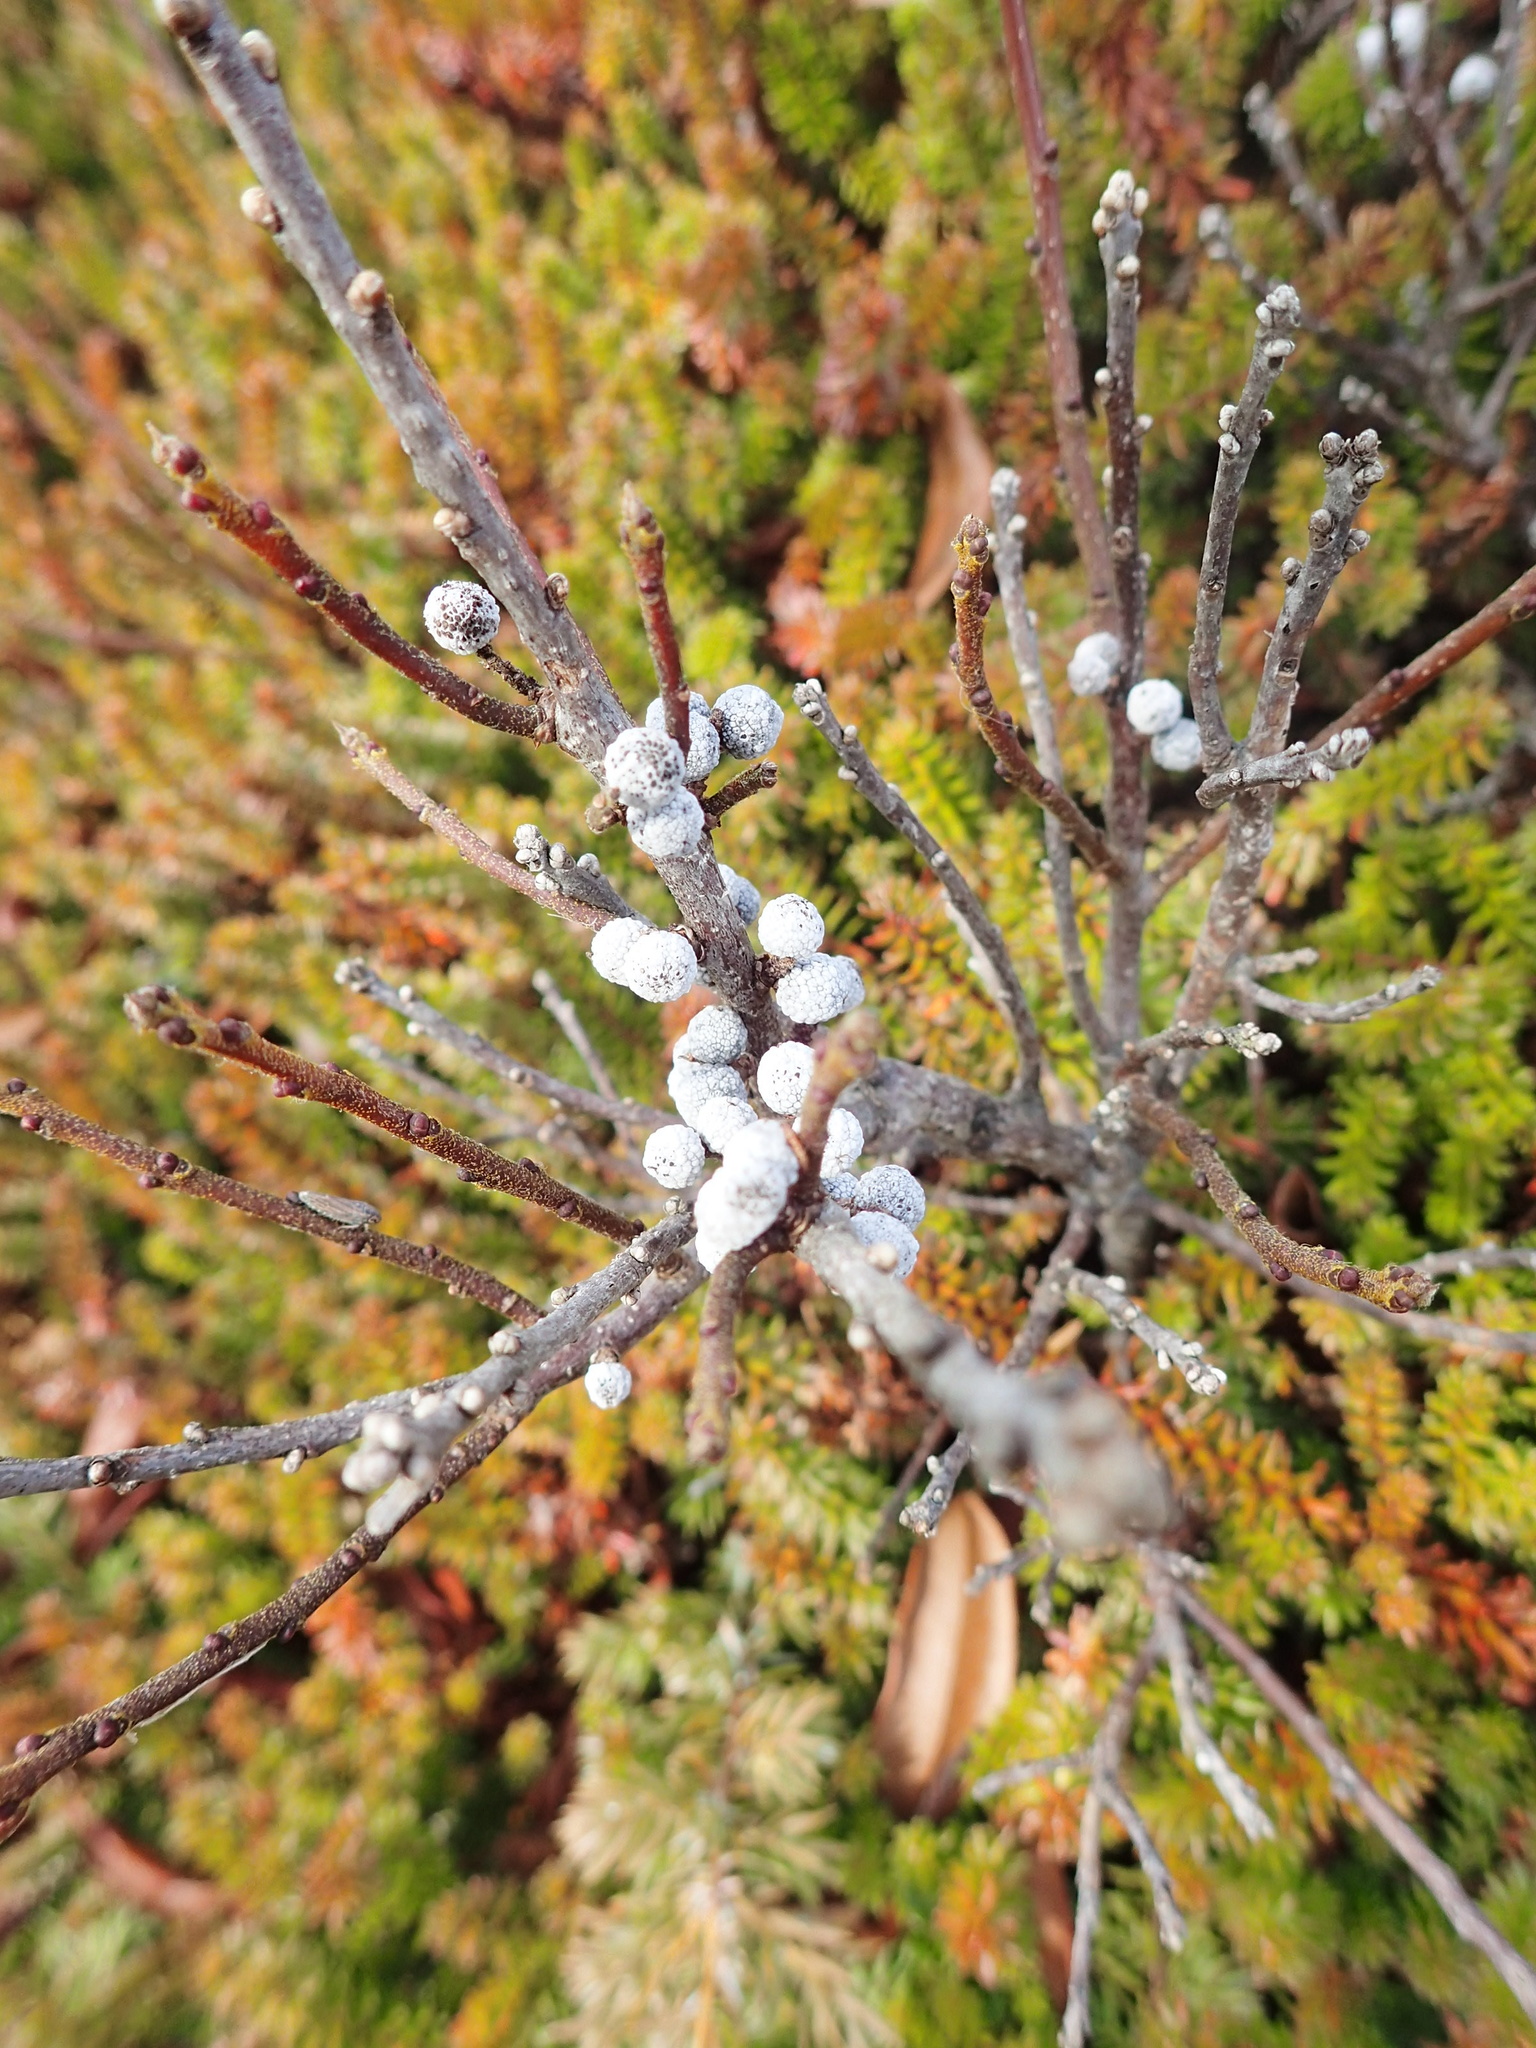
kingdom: Plantae
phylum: Tracheophyta
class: Magnoliopsida
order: Fagales
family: Myricaceae
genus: Morella
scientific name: Morella pensylvanica
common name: Northern bayberry
